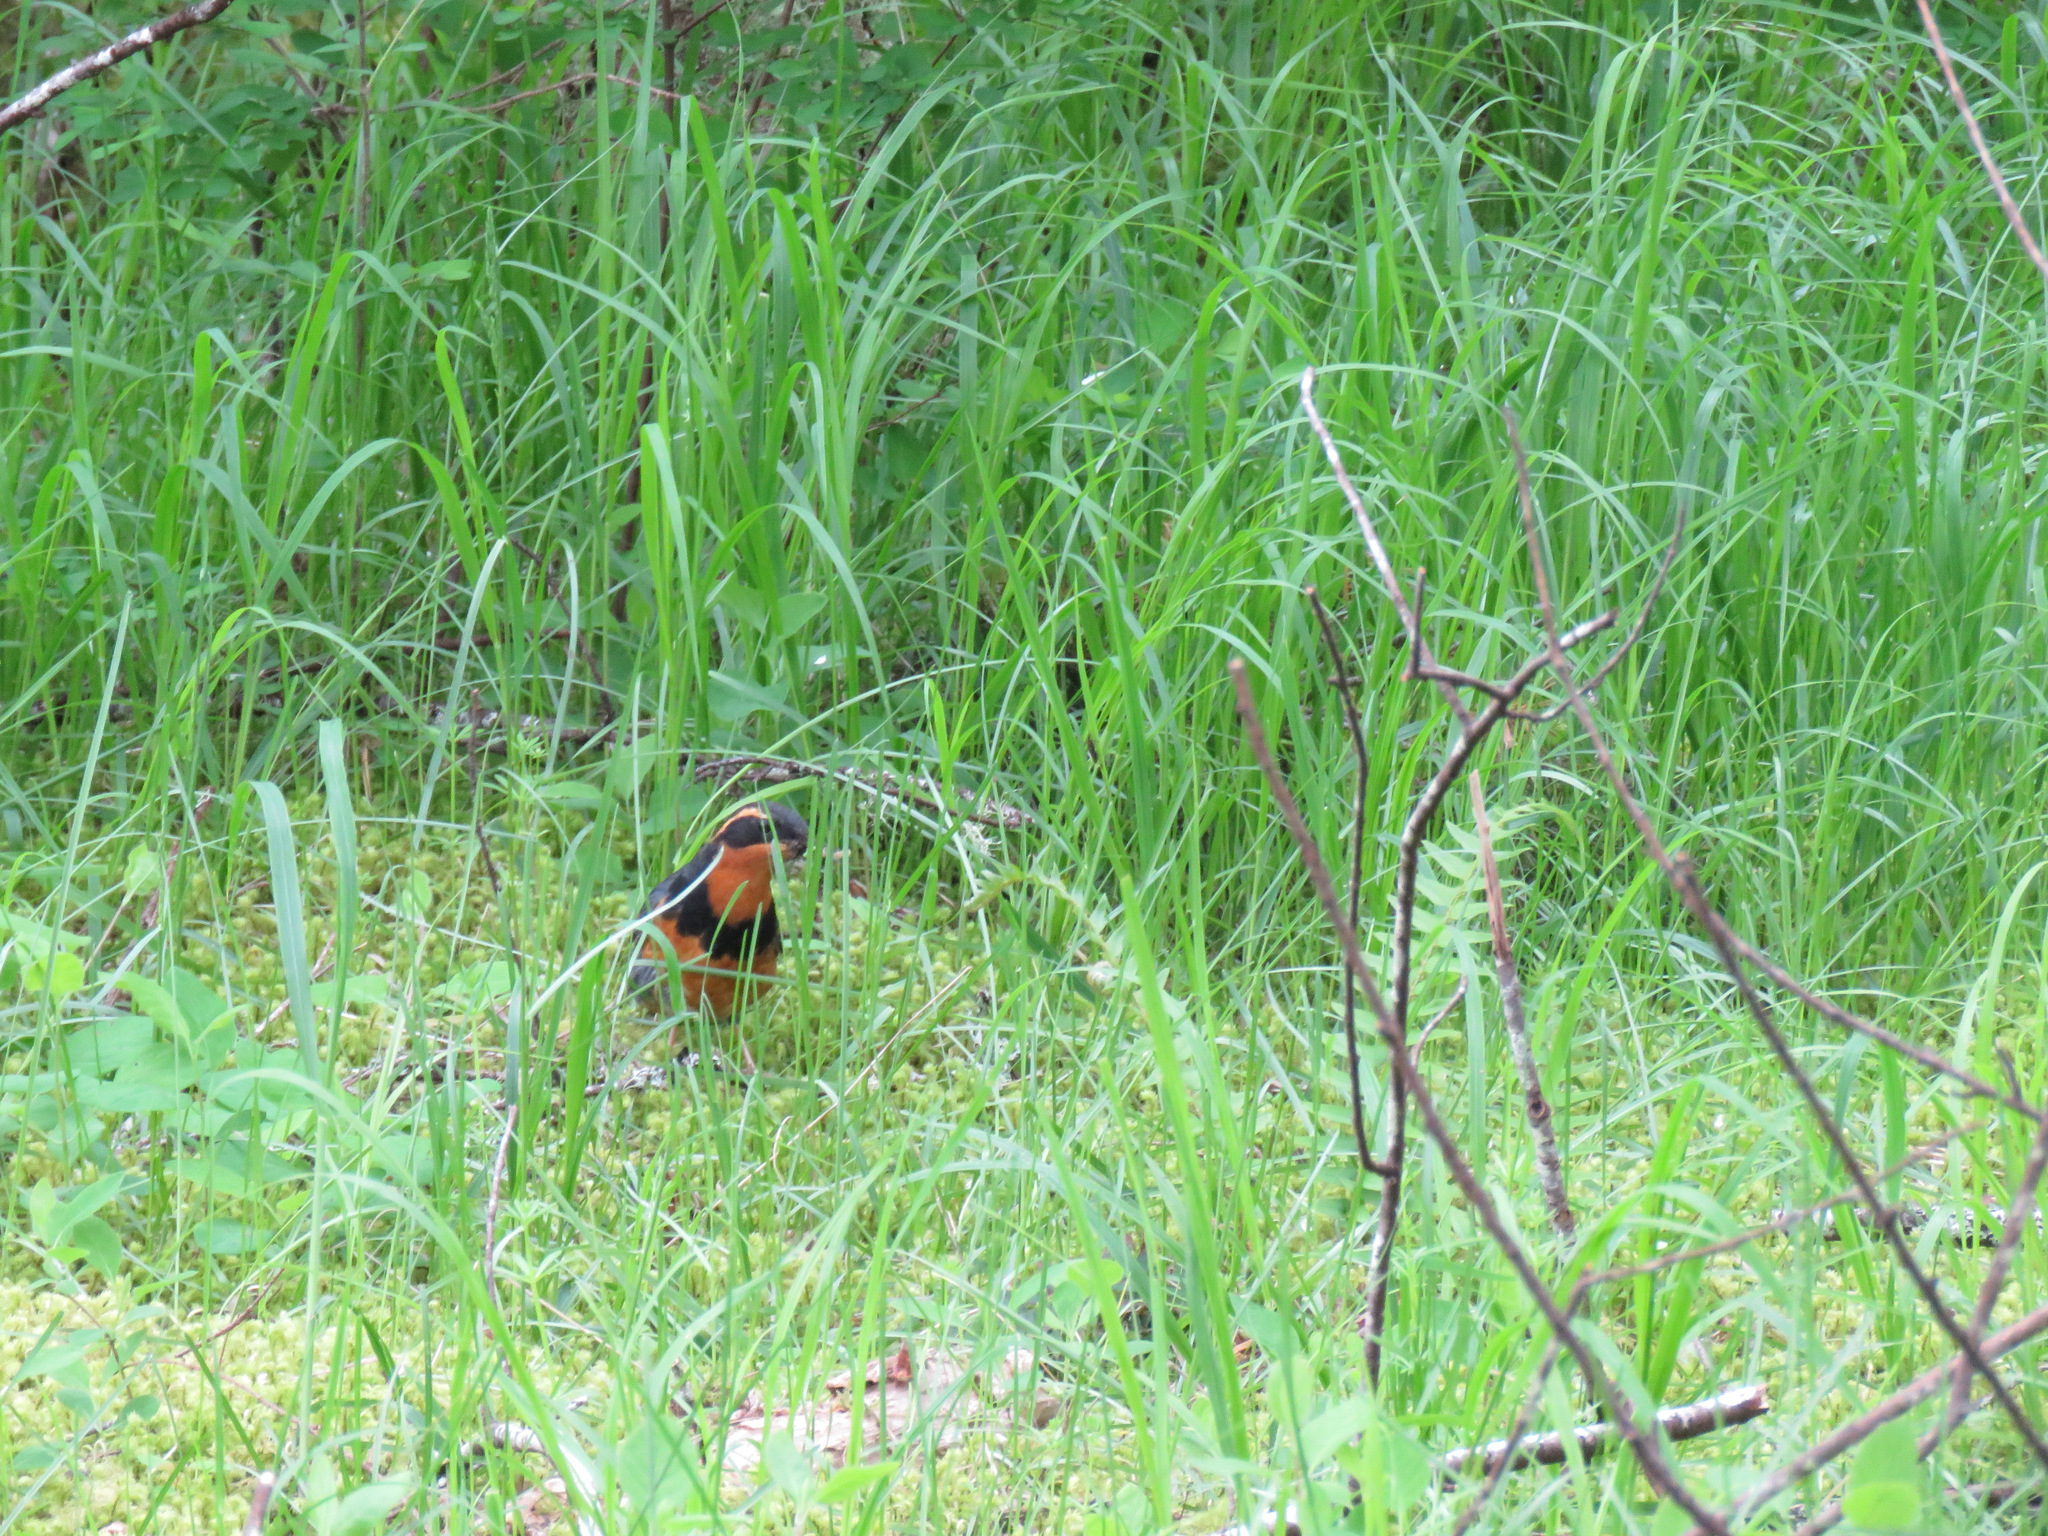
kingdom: Animalia
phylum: Chordata
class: Aves
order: Passeriformes
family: Turdidae
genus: Ixoreus
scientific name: Ixoreus naevius
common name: Varied thrush
